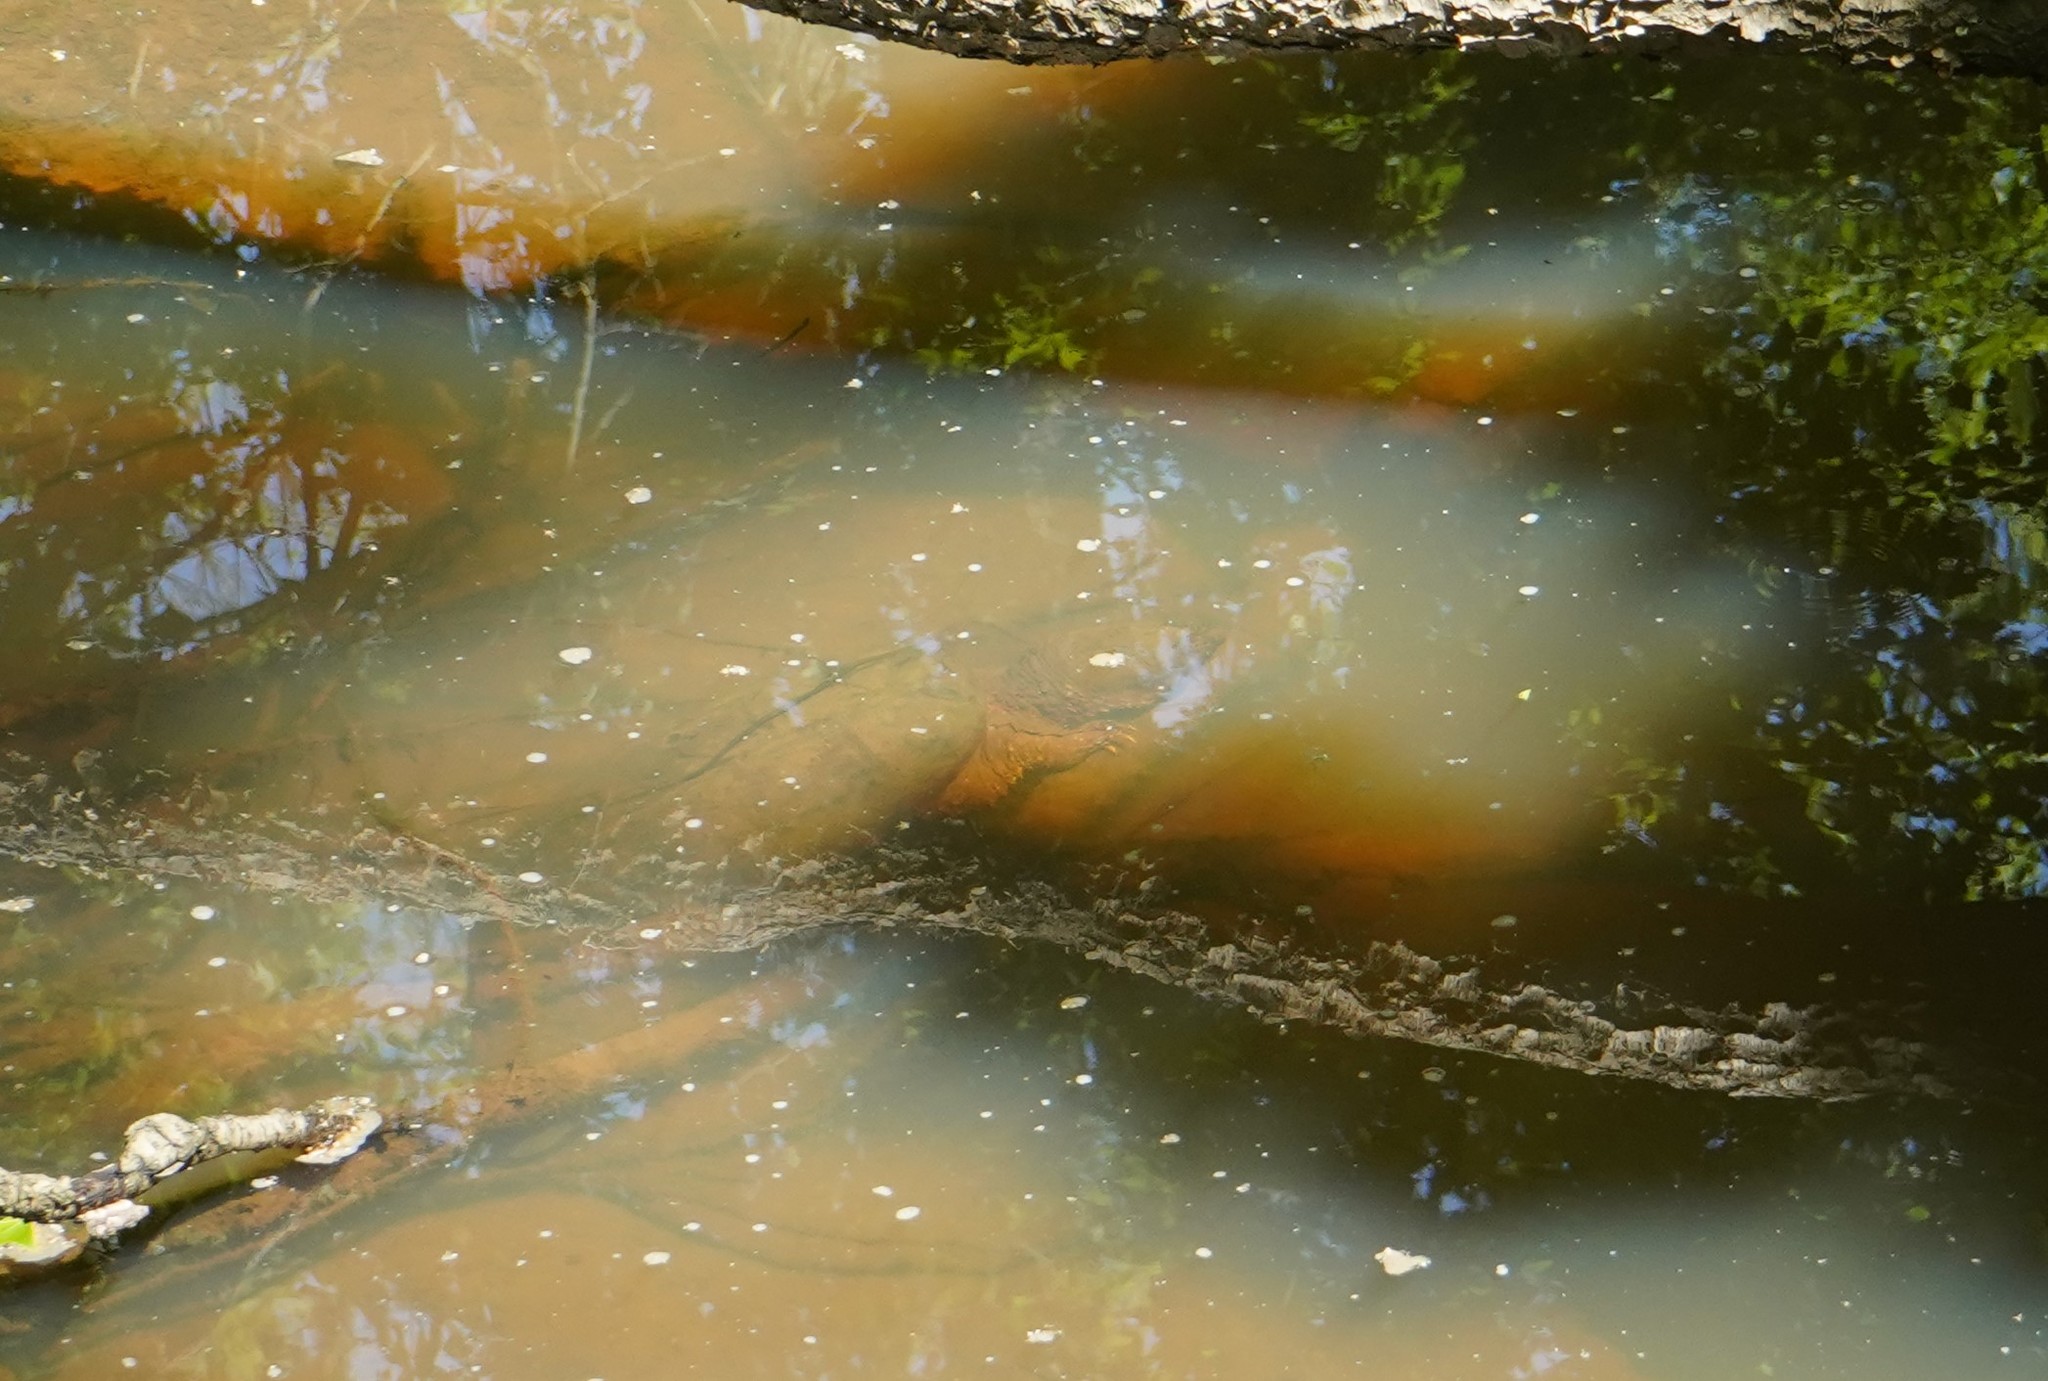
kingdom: Animalia
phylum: Chordata
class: Testudines
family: Chelydridae
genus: Chelydra
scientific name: Chelydra serpentina
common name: Common snapping turtle
